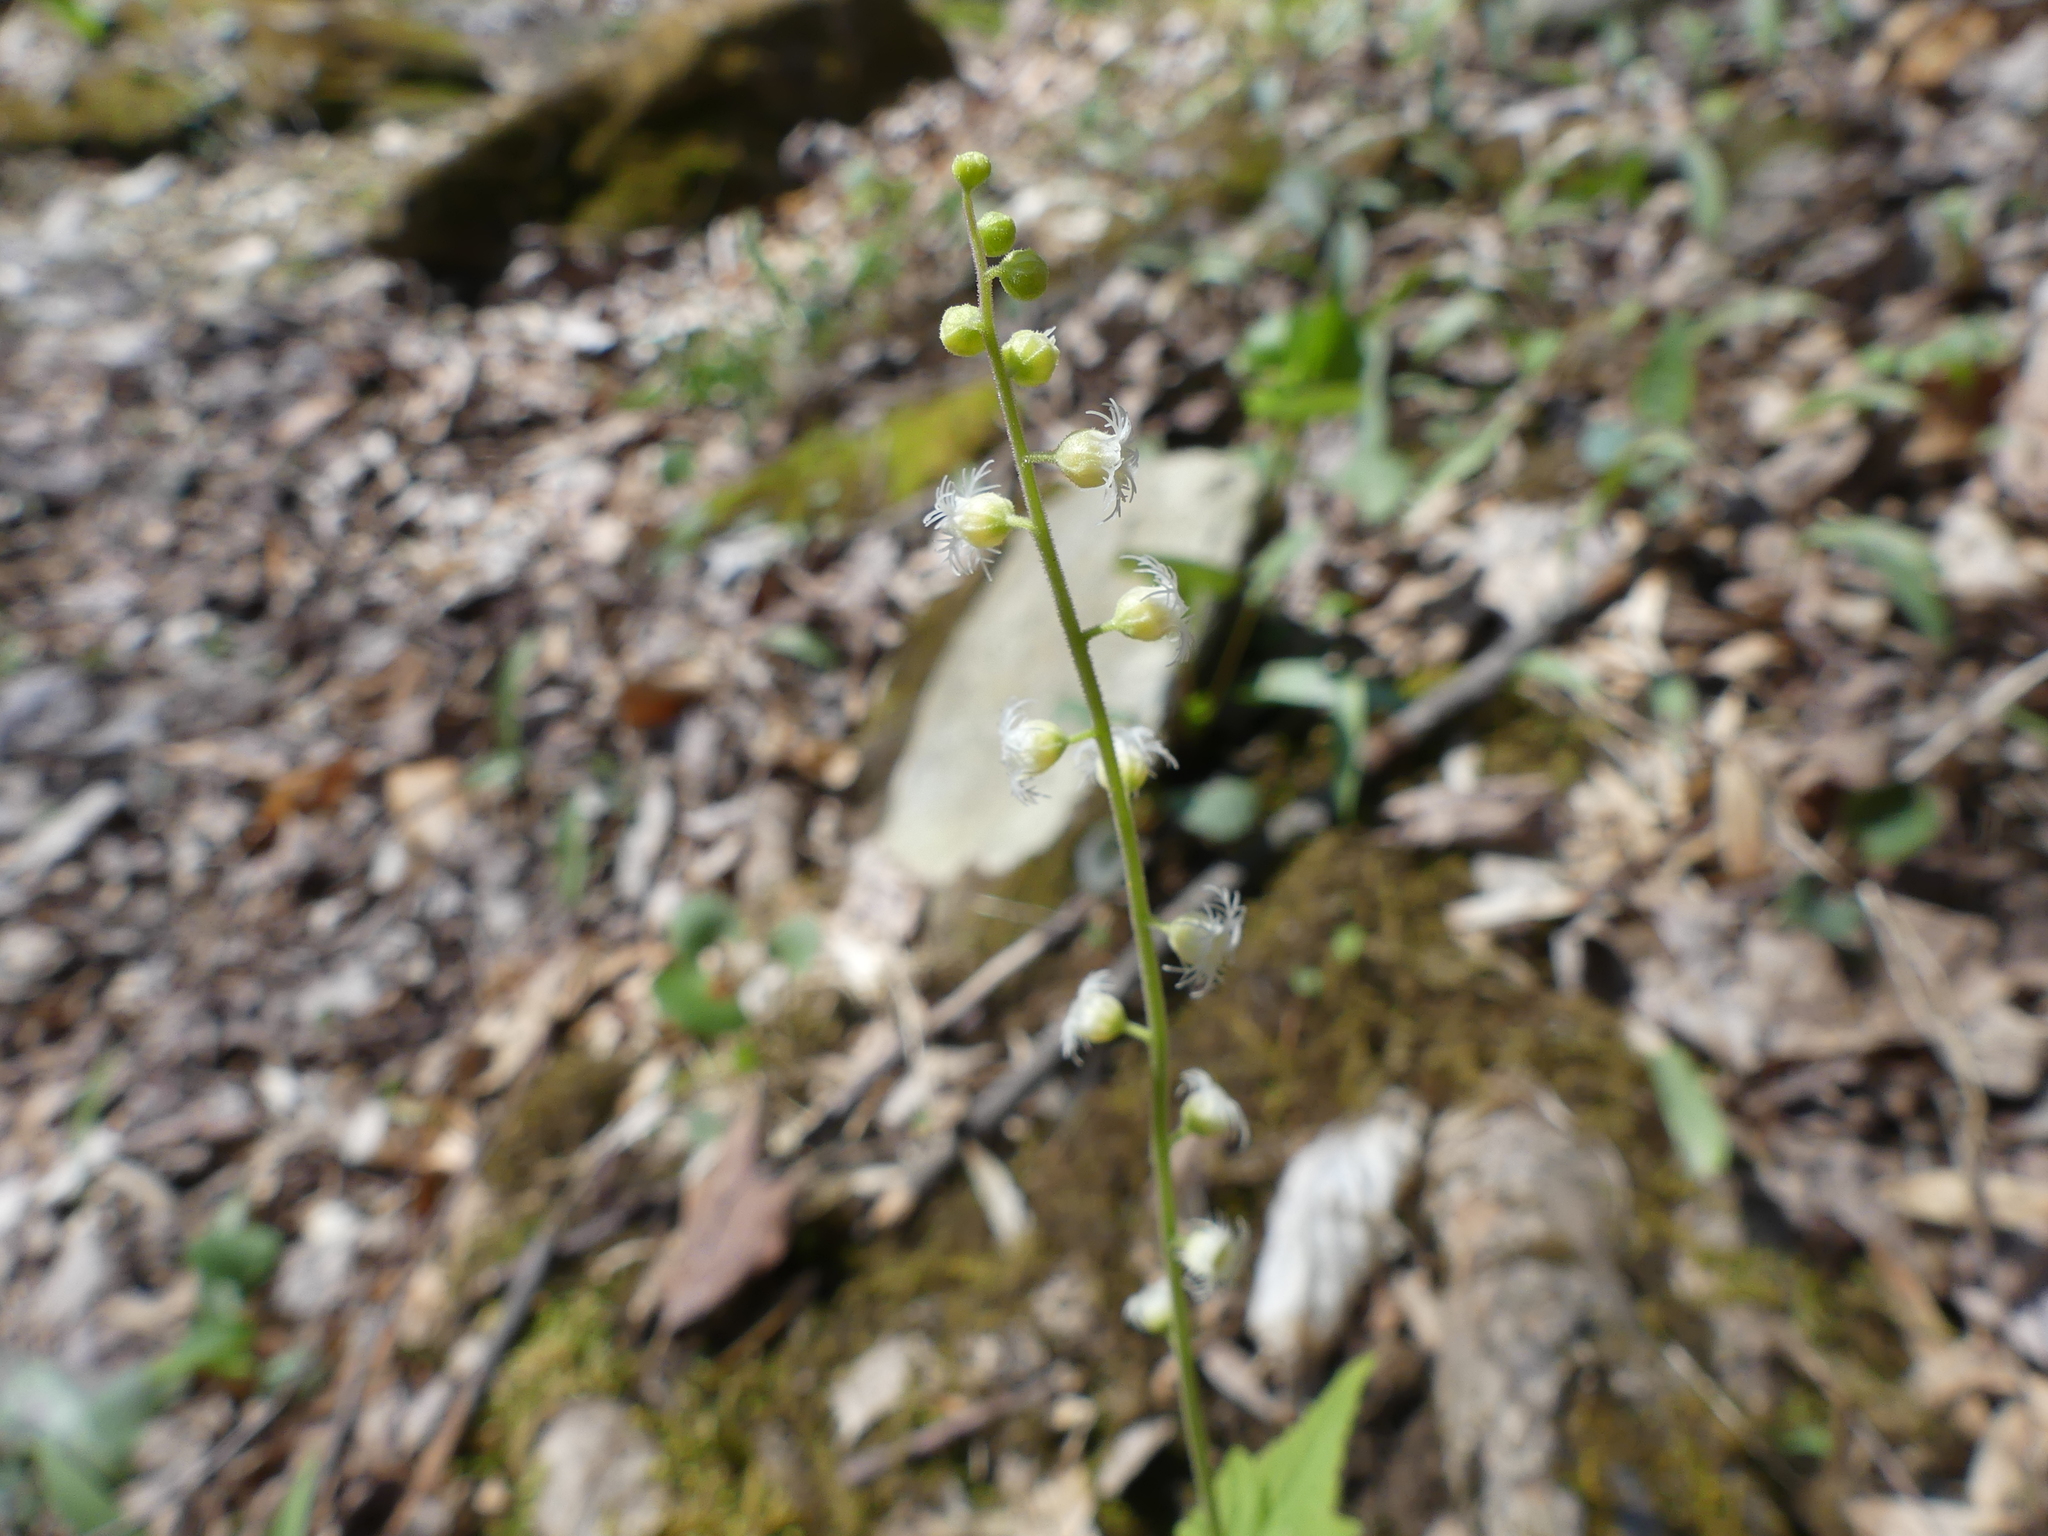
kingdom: Plantae
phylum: Tracheophyta
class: Magnoliopsida
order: Saxifragales
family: Saxifragaceae
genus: Mitella
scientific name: Mitella diphylla
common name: Coolwort
